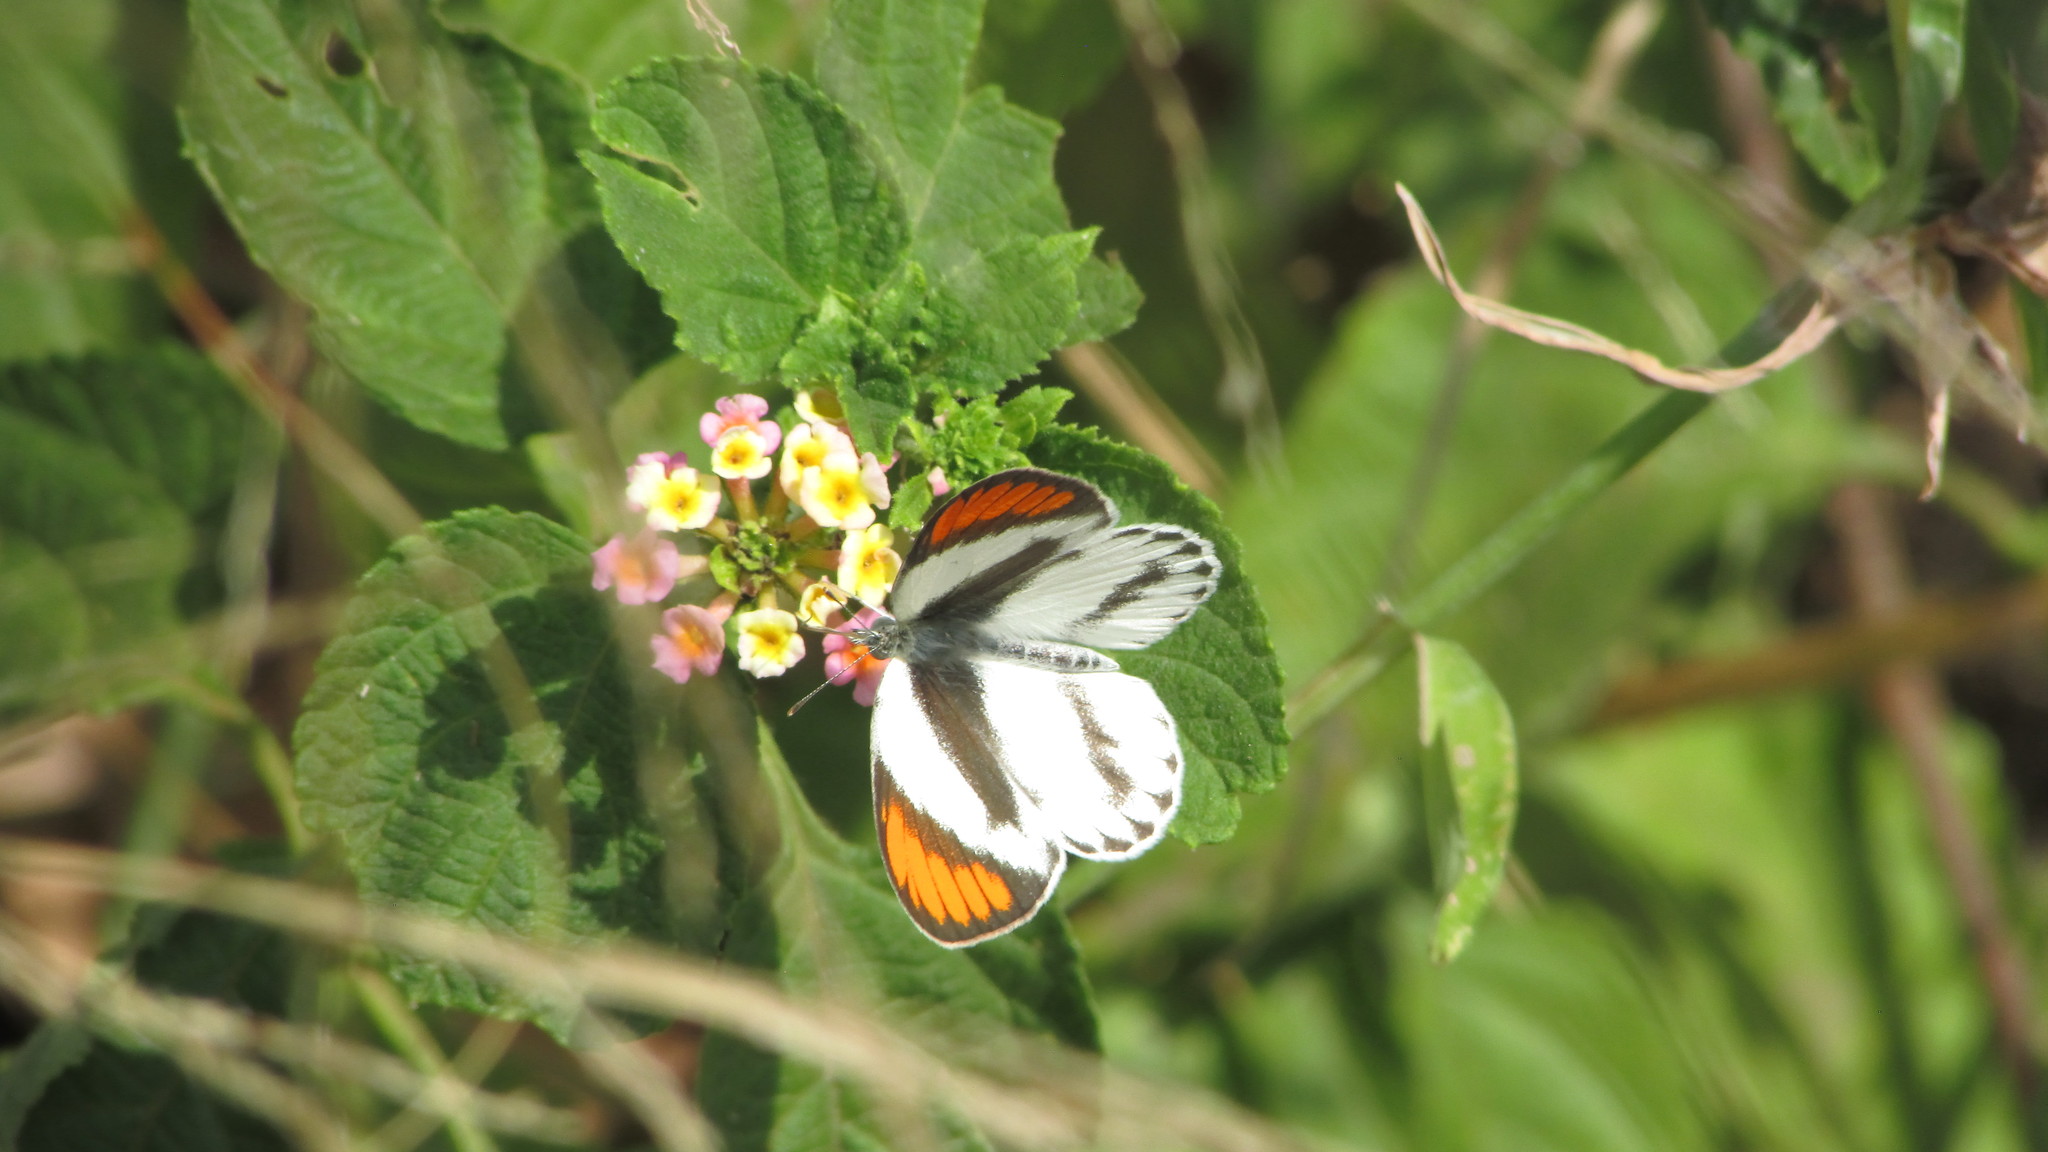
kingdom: Animalia
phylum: Arthropoda
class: Insecta
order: Lepidoptera
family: Pieridae
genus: Colotis
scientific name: Colotis euippe
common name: Round-winged orange tip
